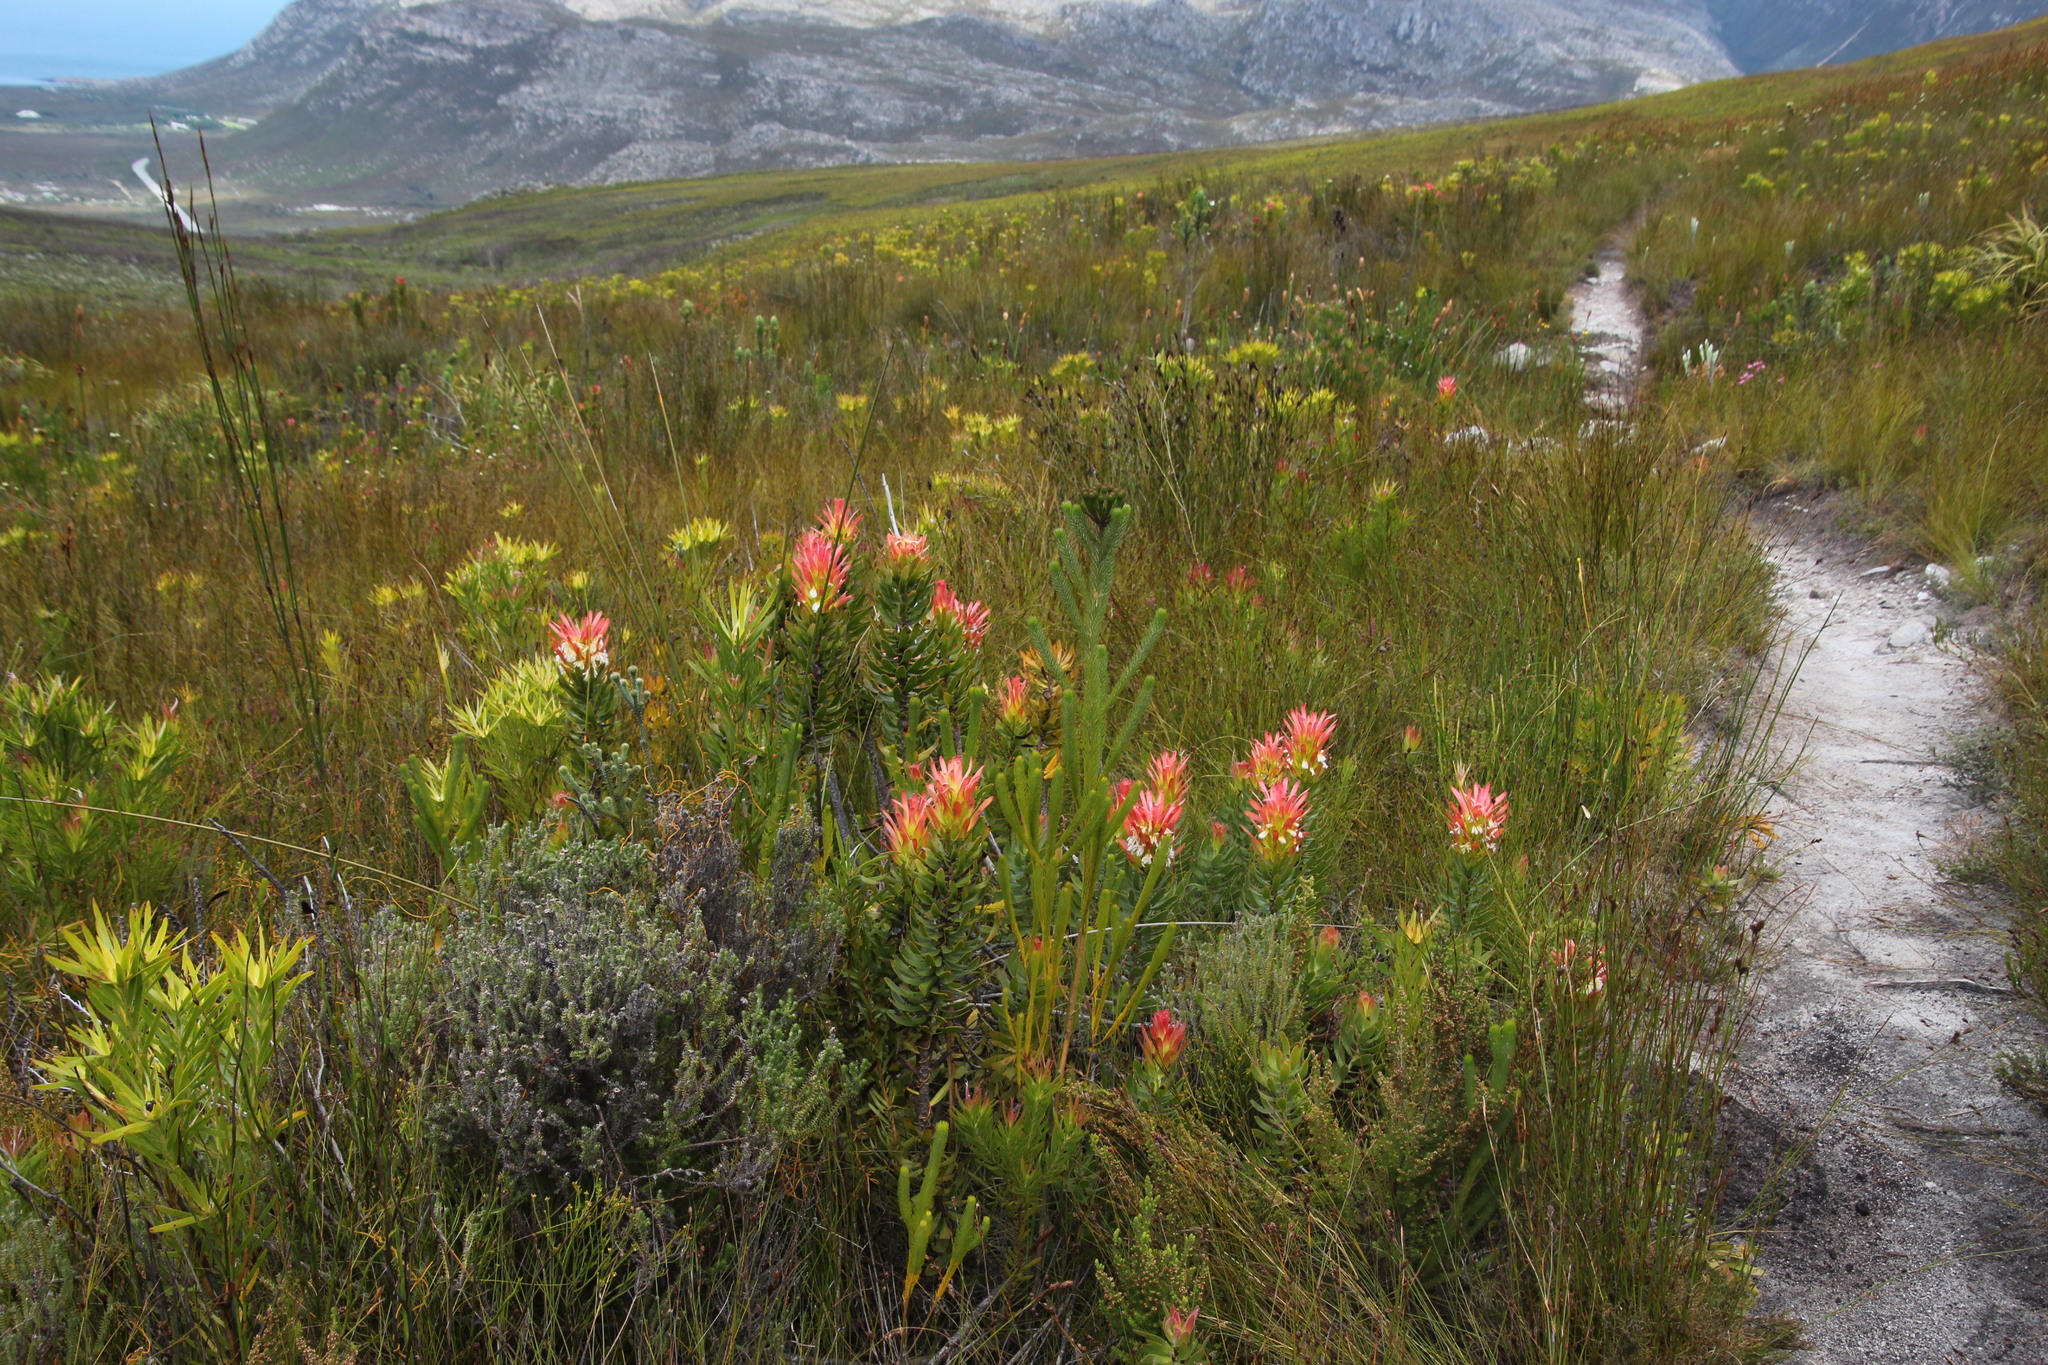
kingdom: Plantae
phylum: Tracheophyta
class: Magnoliopsida
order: Proteales
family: Proteaceae
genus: Mimetes
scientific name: Mimetes cucullatus
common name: Common pagoda
